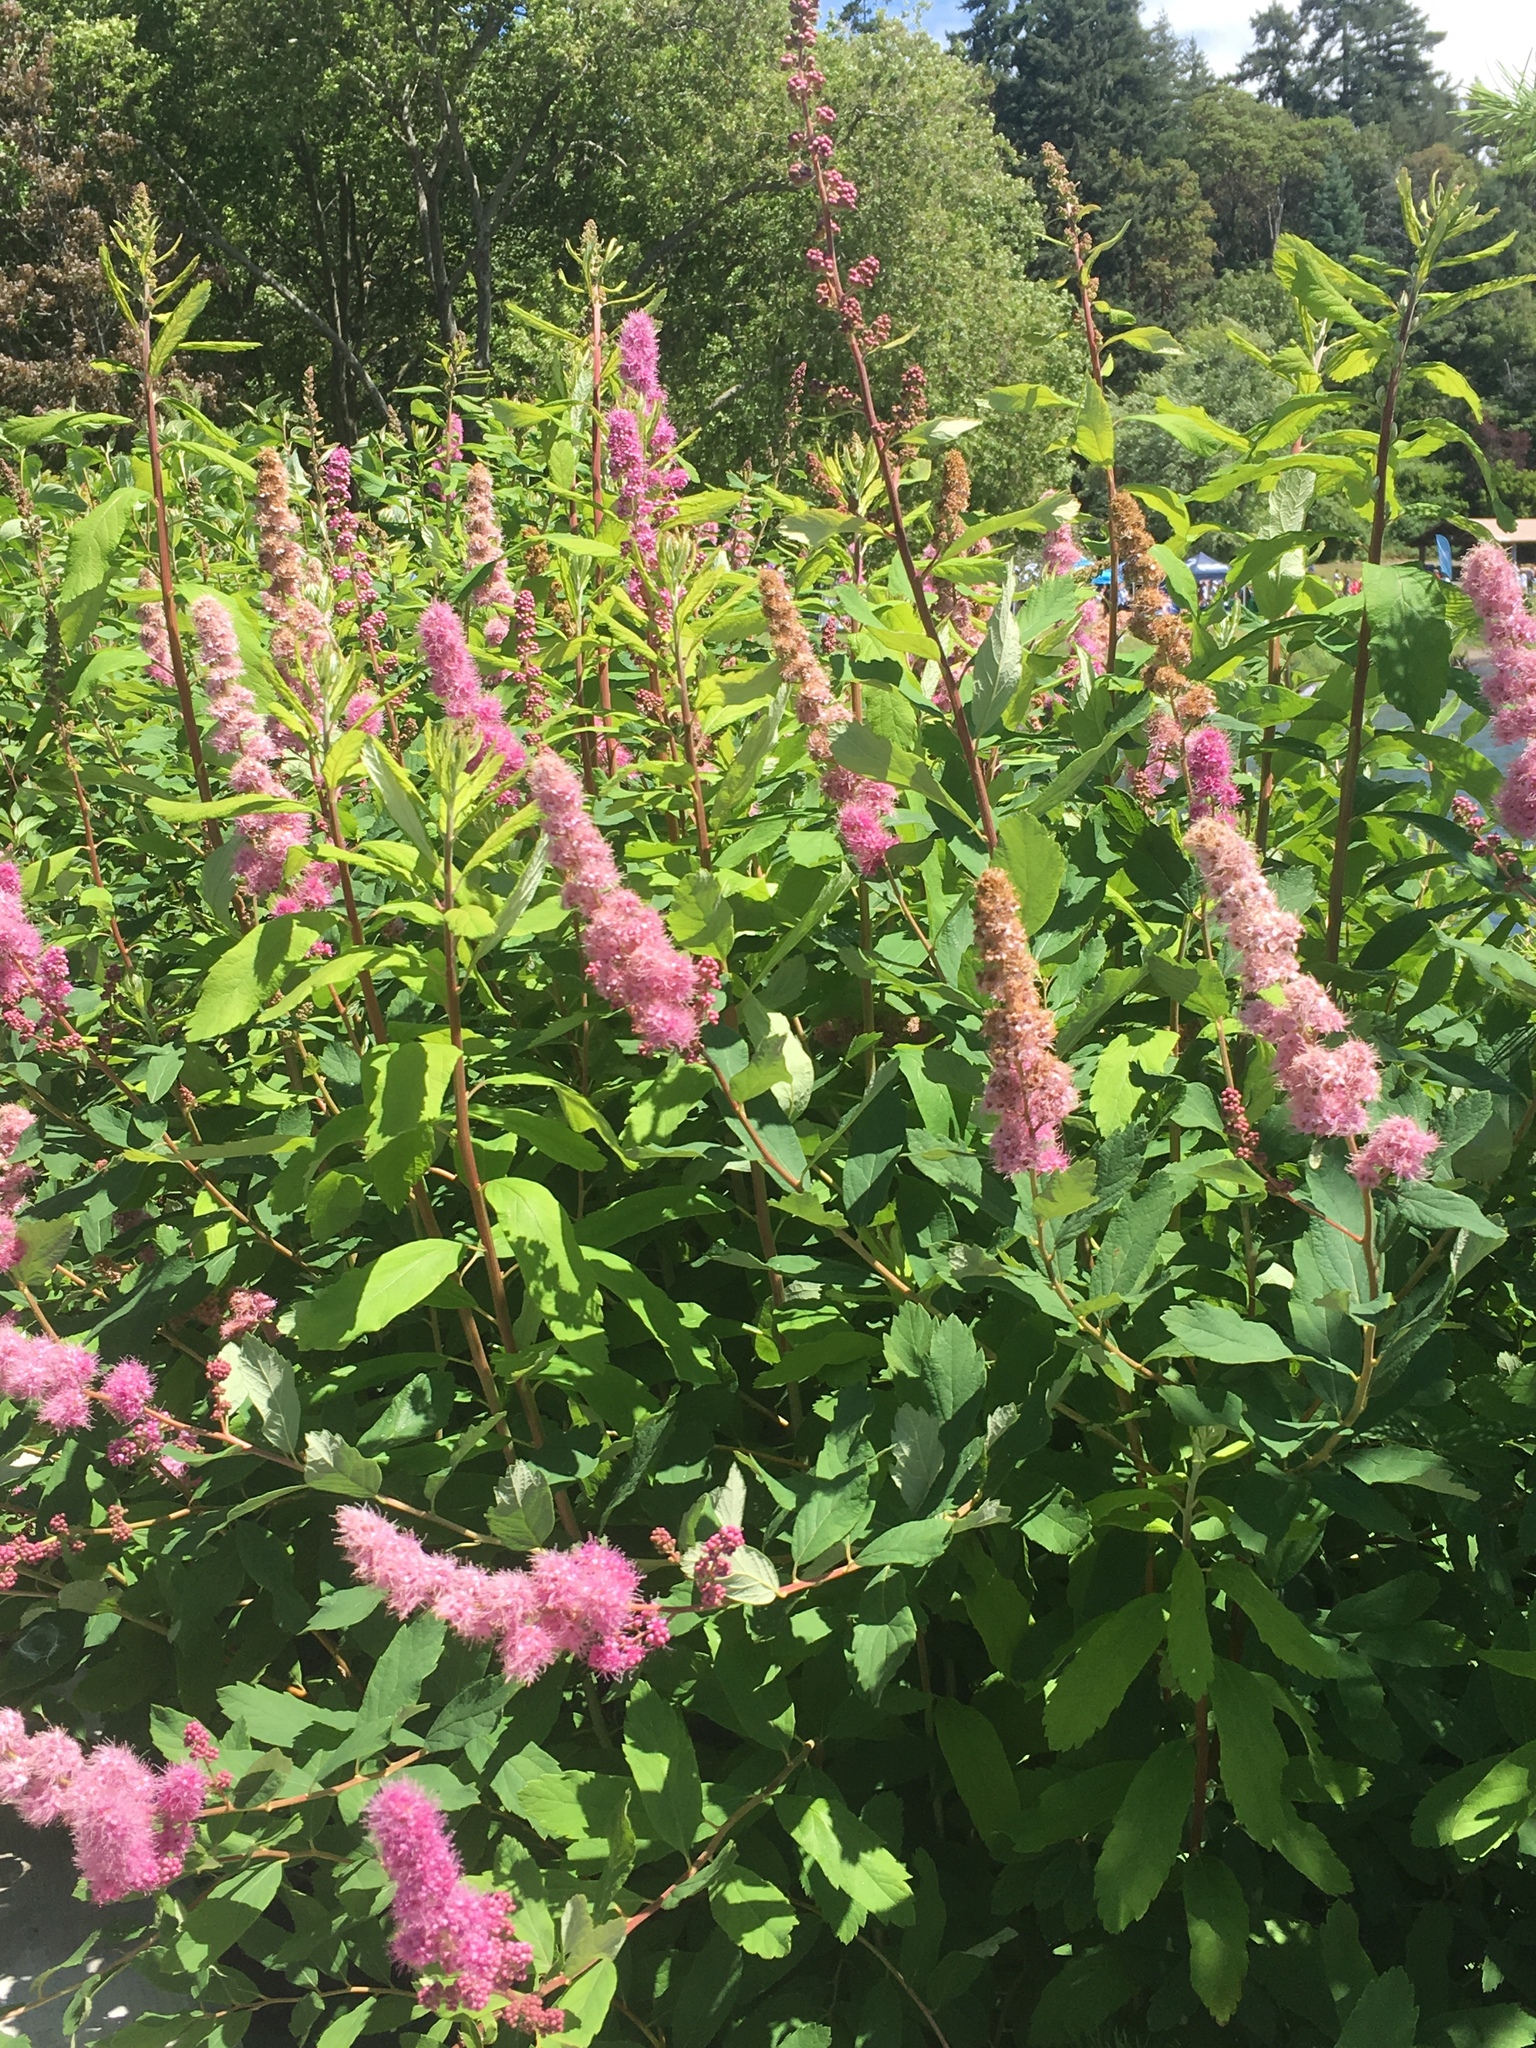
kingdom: Plantae
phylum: Tracheophyta
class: Magnoliopsida
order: Rosales
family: Rosaceae
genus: Spiraea
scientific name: Spiraea douglasii
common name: Steeplebush
